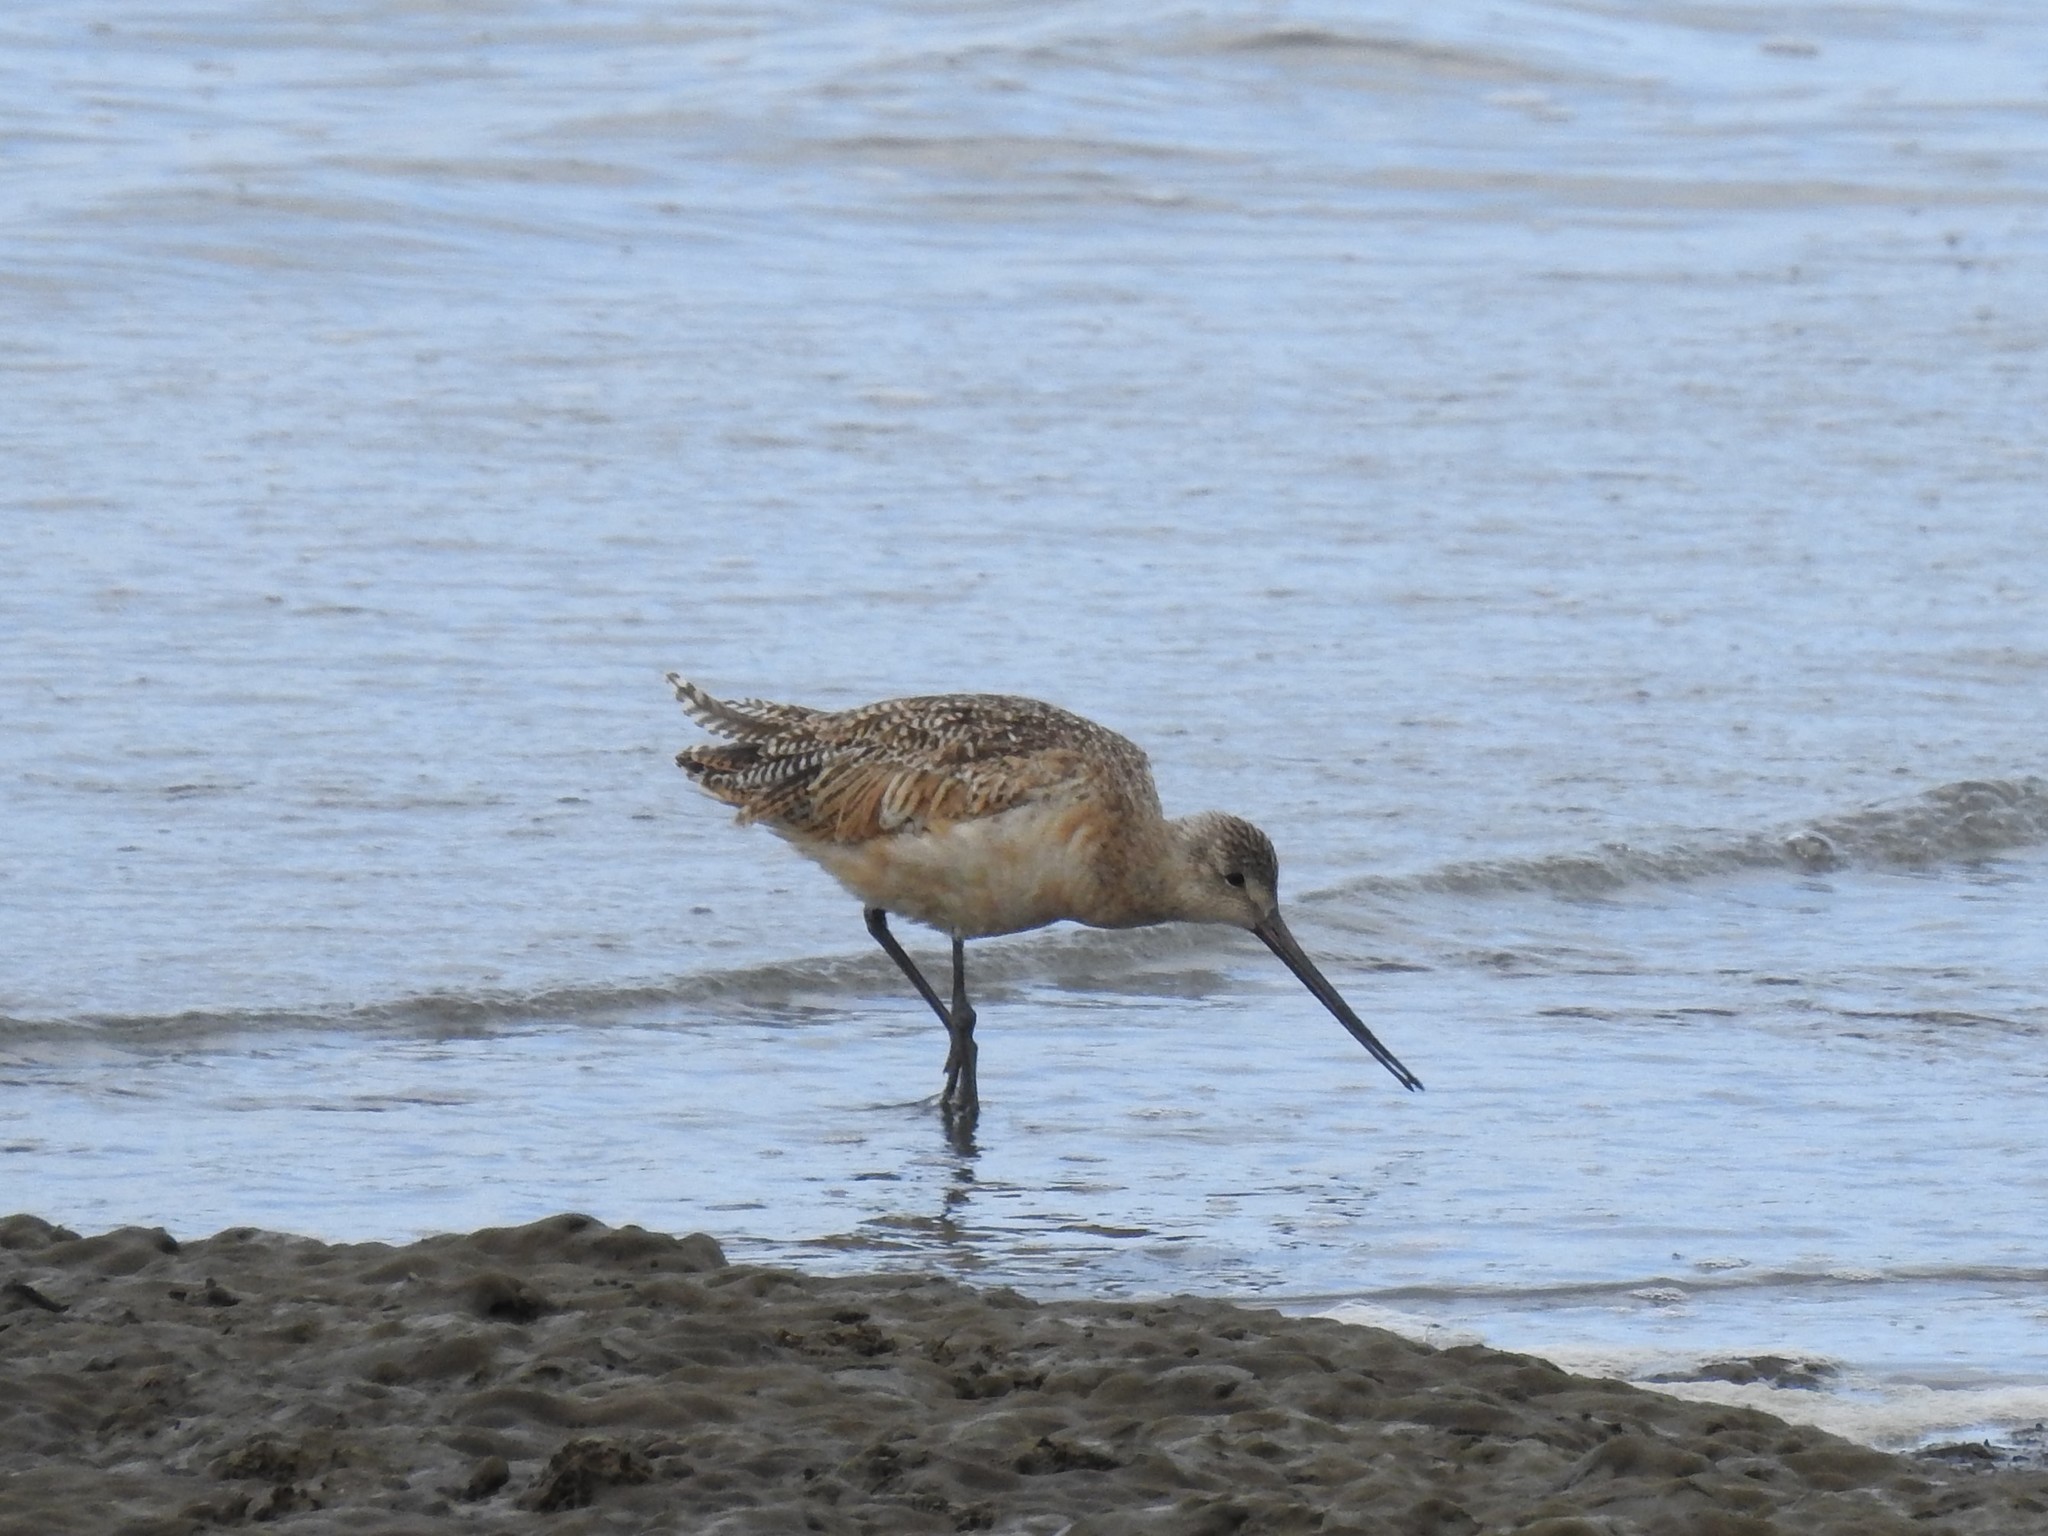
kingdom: Animalia
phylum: Chordata
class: Aves
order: Charadriiformes
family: Scolopacidae
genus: Limosa
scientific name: Limosa fedoa
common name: Marbled godwit
